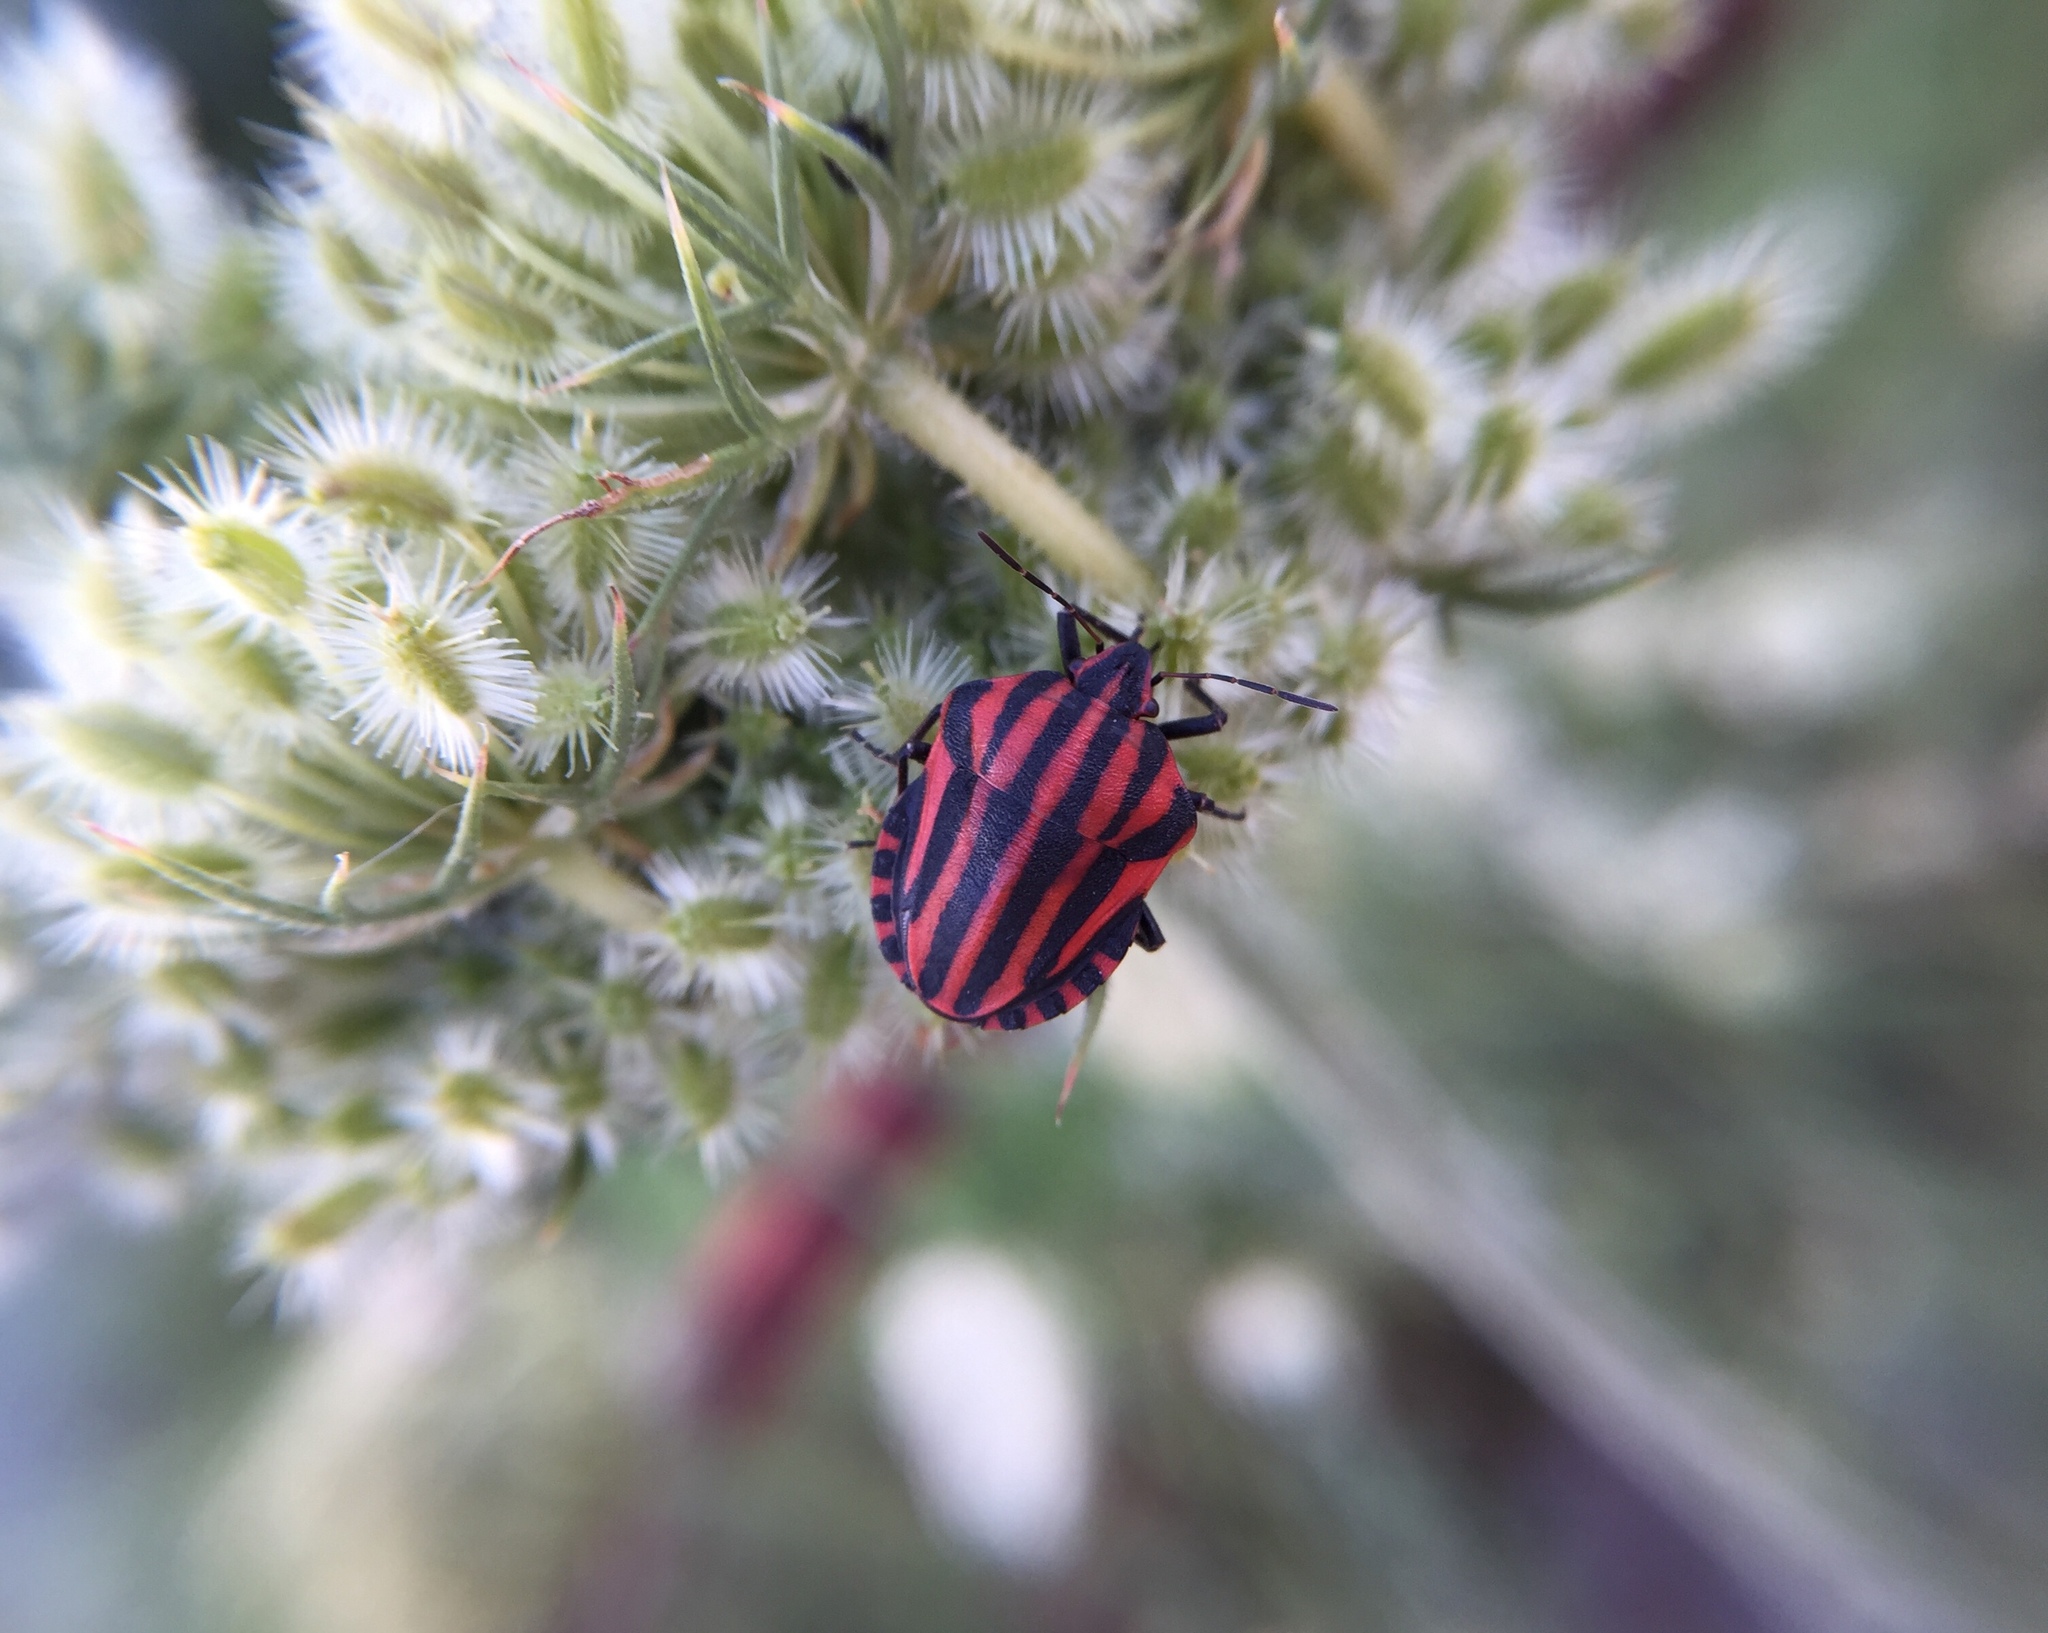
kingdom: Animalia
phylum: Arthropoda
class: Insecta
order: Hemiptera
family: Pentatomidae
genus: Graphosoma
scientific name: Graphosoma italicum
